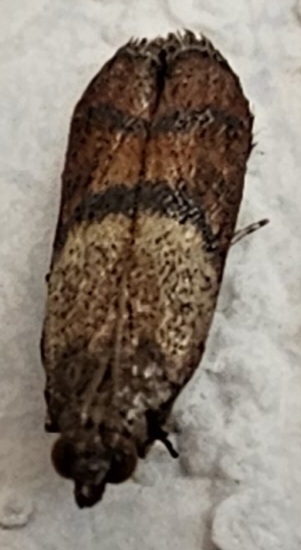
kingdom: Animalia
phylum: Arthropoda
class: Insecta
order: Lepidoptera
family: Pyralidae
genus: Plodia
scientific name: Plodia interpunctella
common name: Indian meal moth
